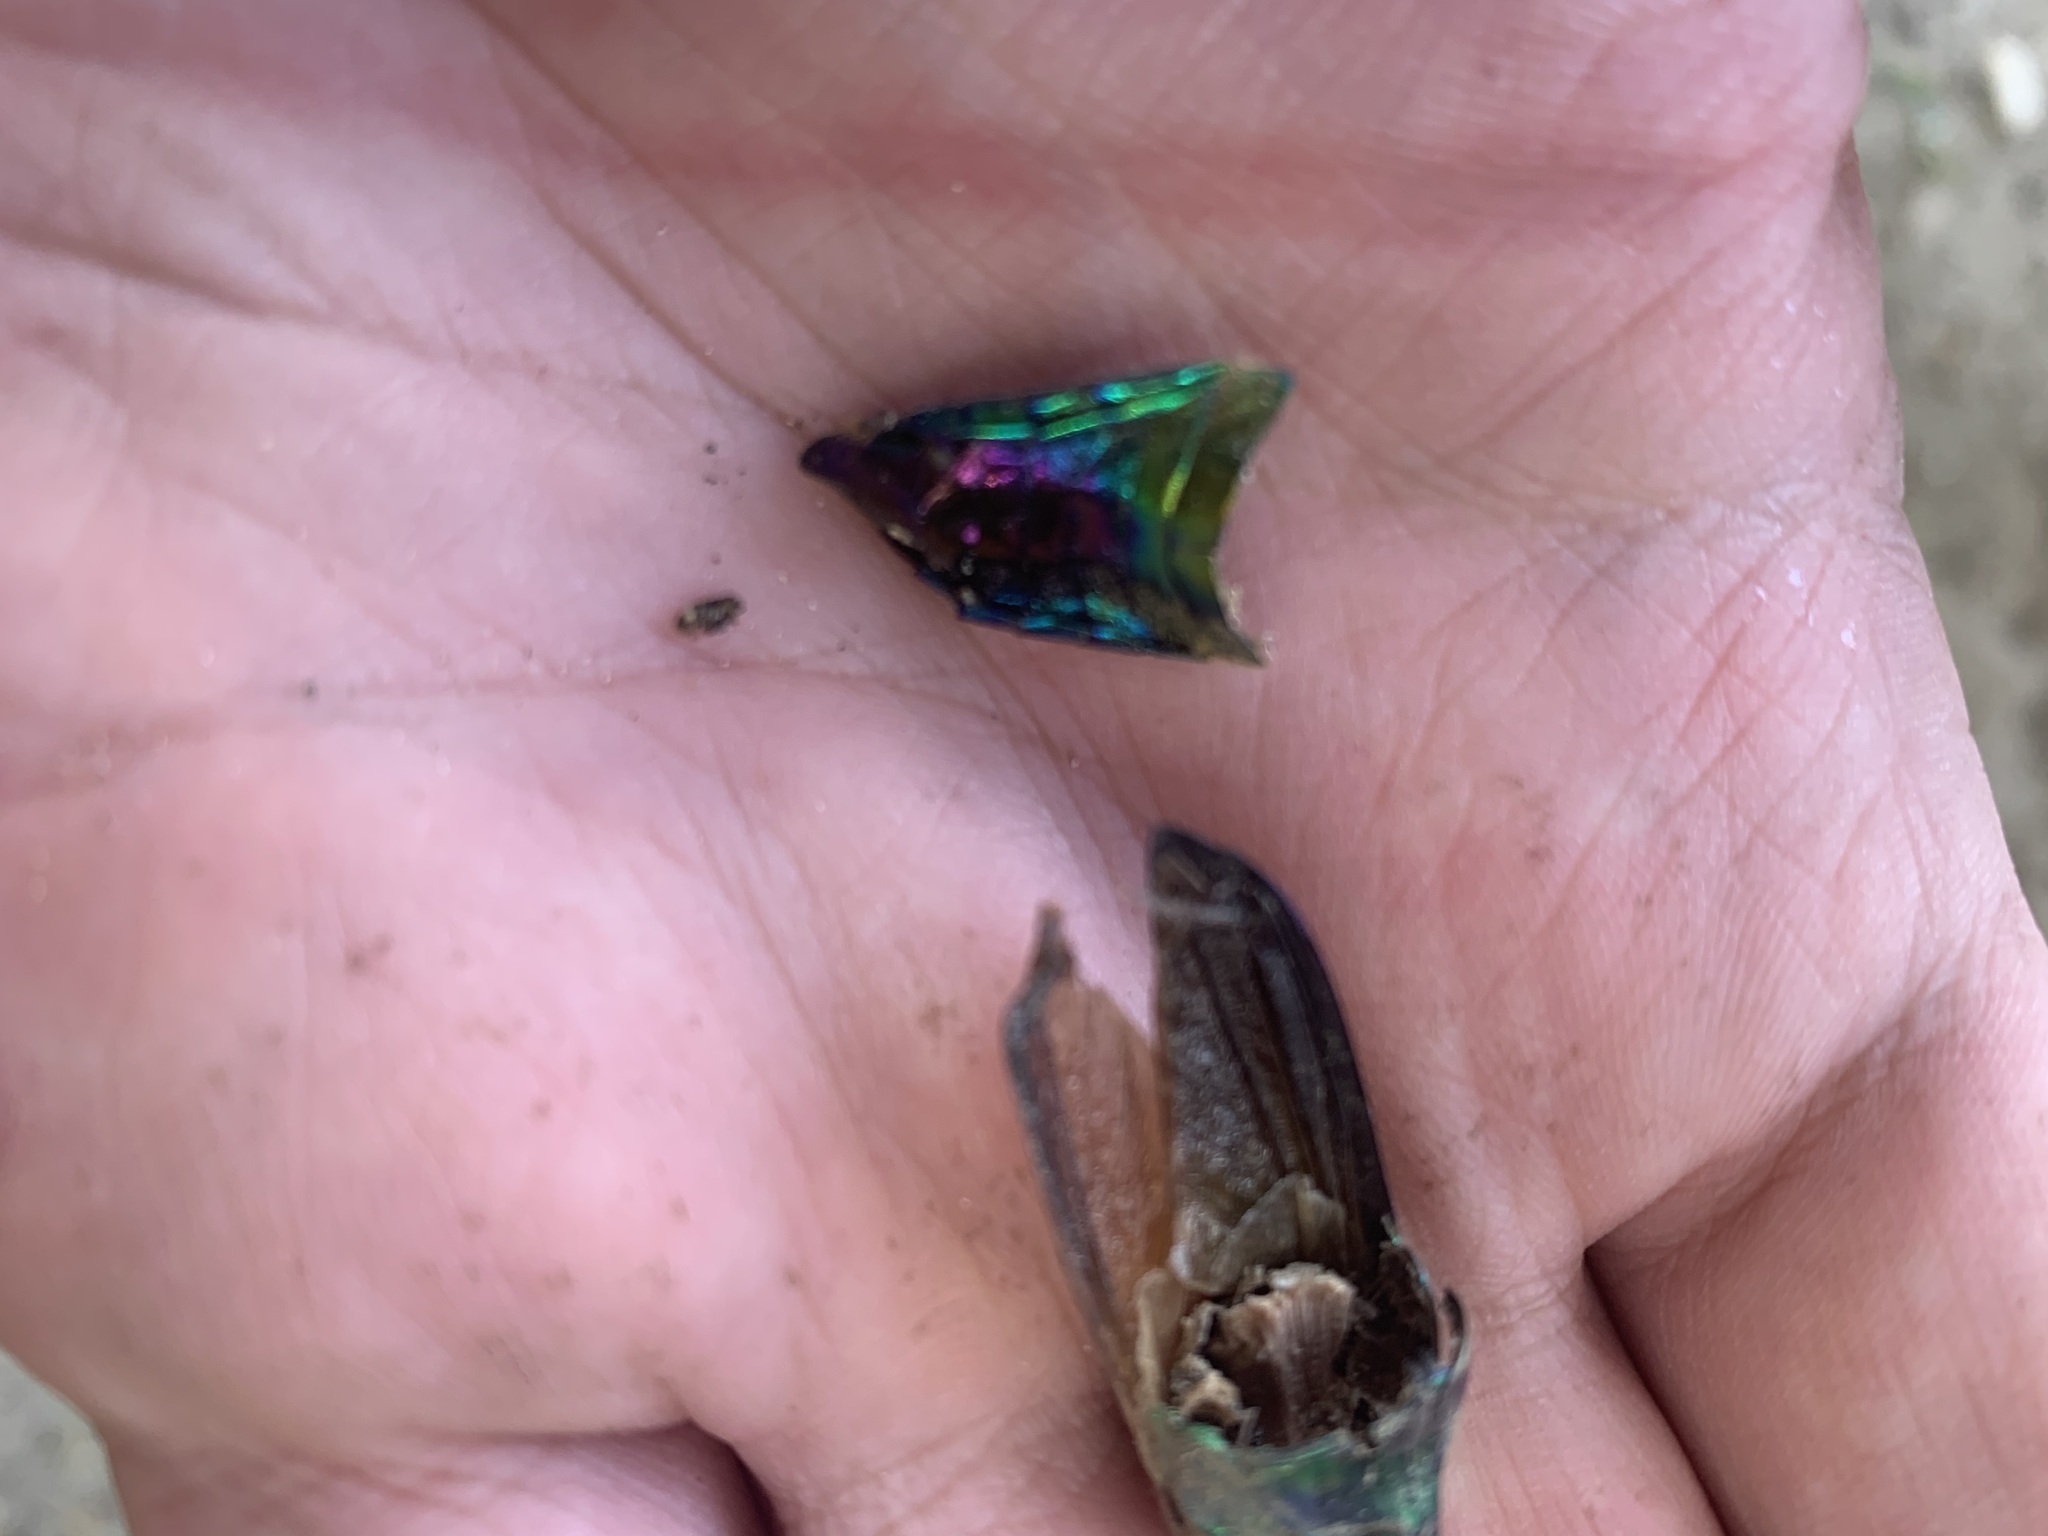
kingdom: Animalia
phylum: Arthropoda
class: Insecta
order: Coleoptera
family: Cerambycidae
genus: Cheloderus
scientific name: Cheloderus childreni
